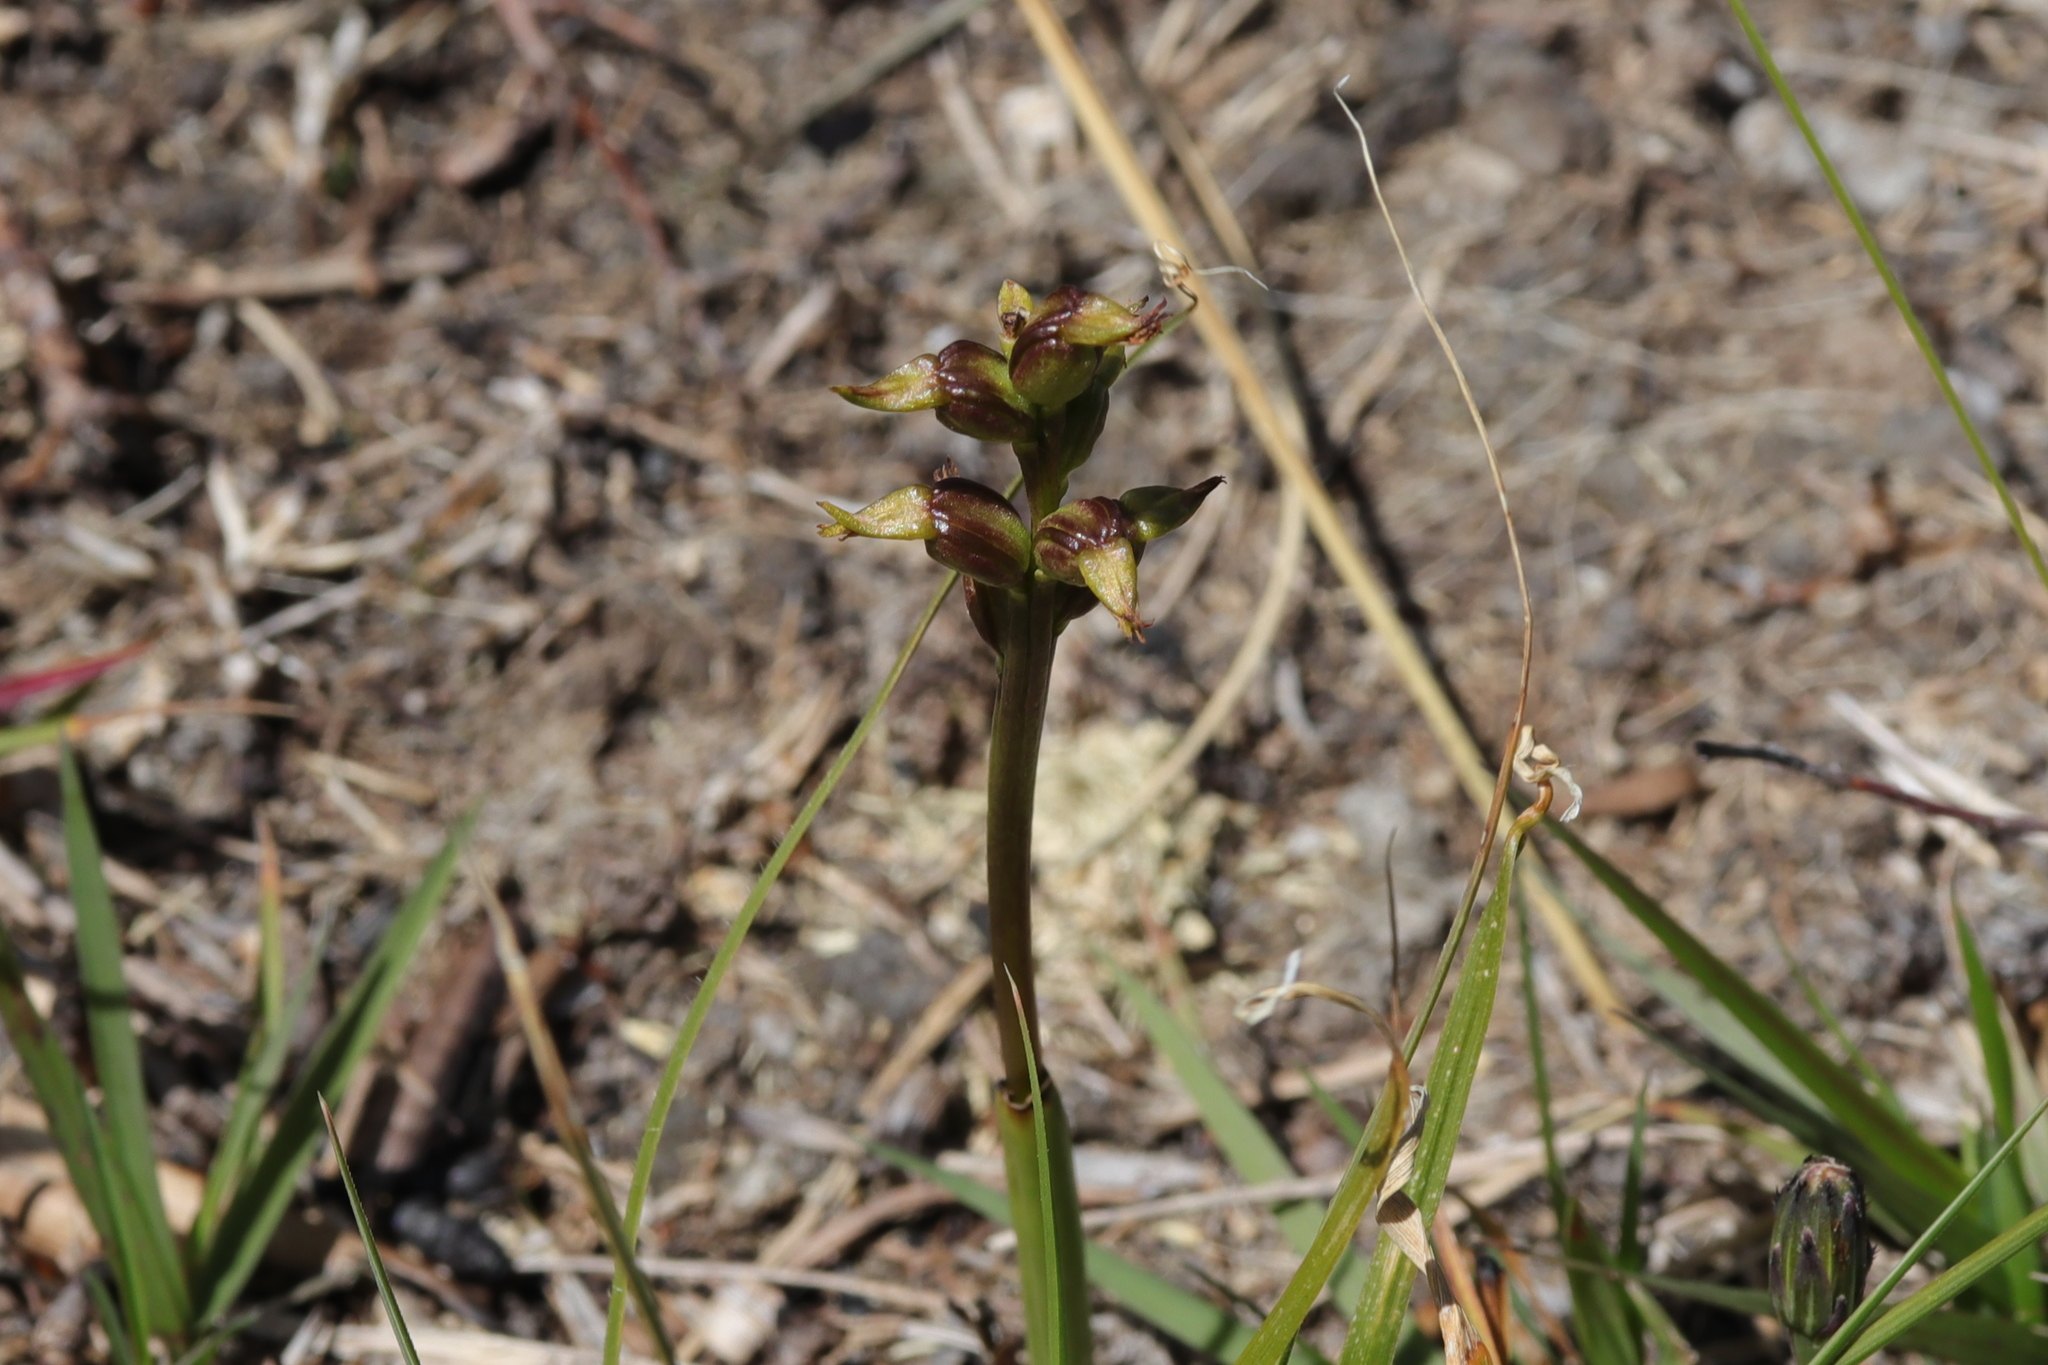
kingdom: Plantae
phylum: Tracheophyta
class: Liliopsida
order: Asparagales
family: Orchidaceae
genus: Prasophyllum
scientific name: Prasophyllum colensoi
